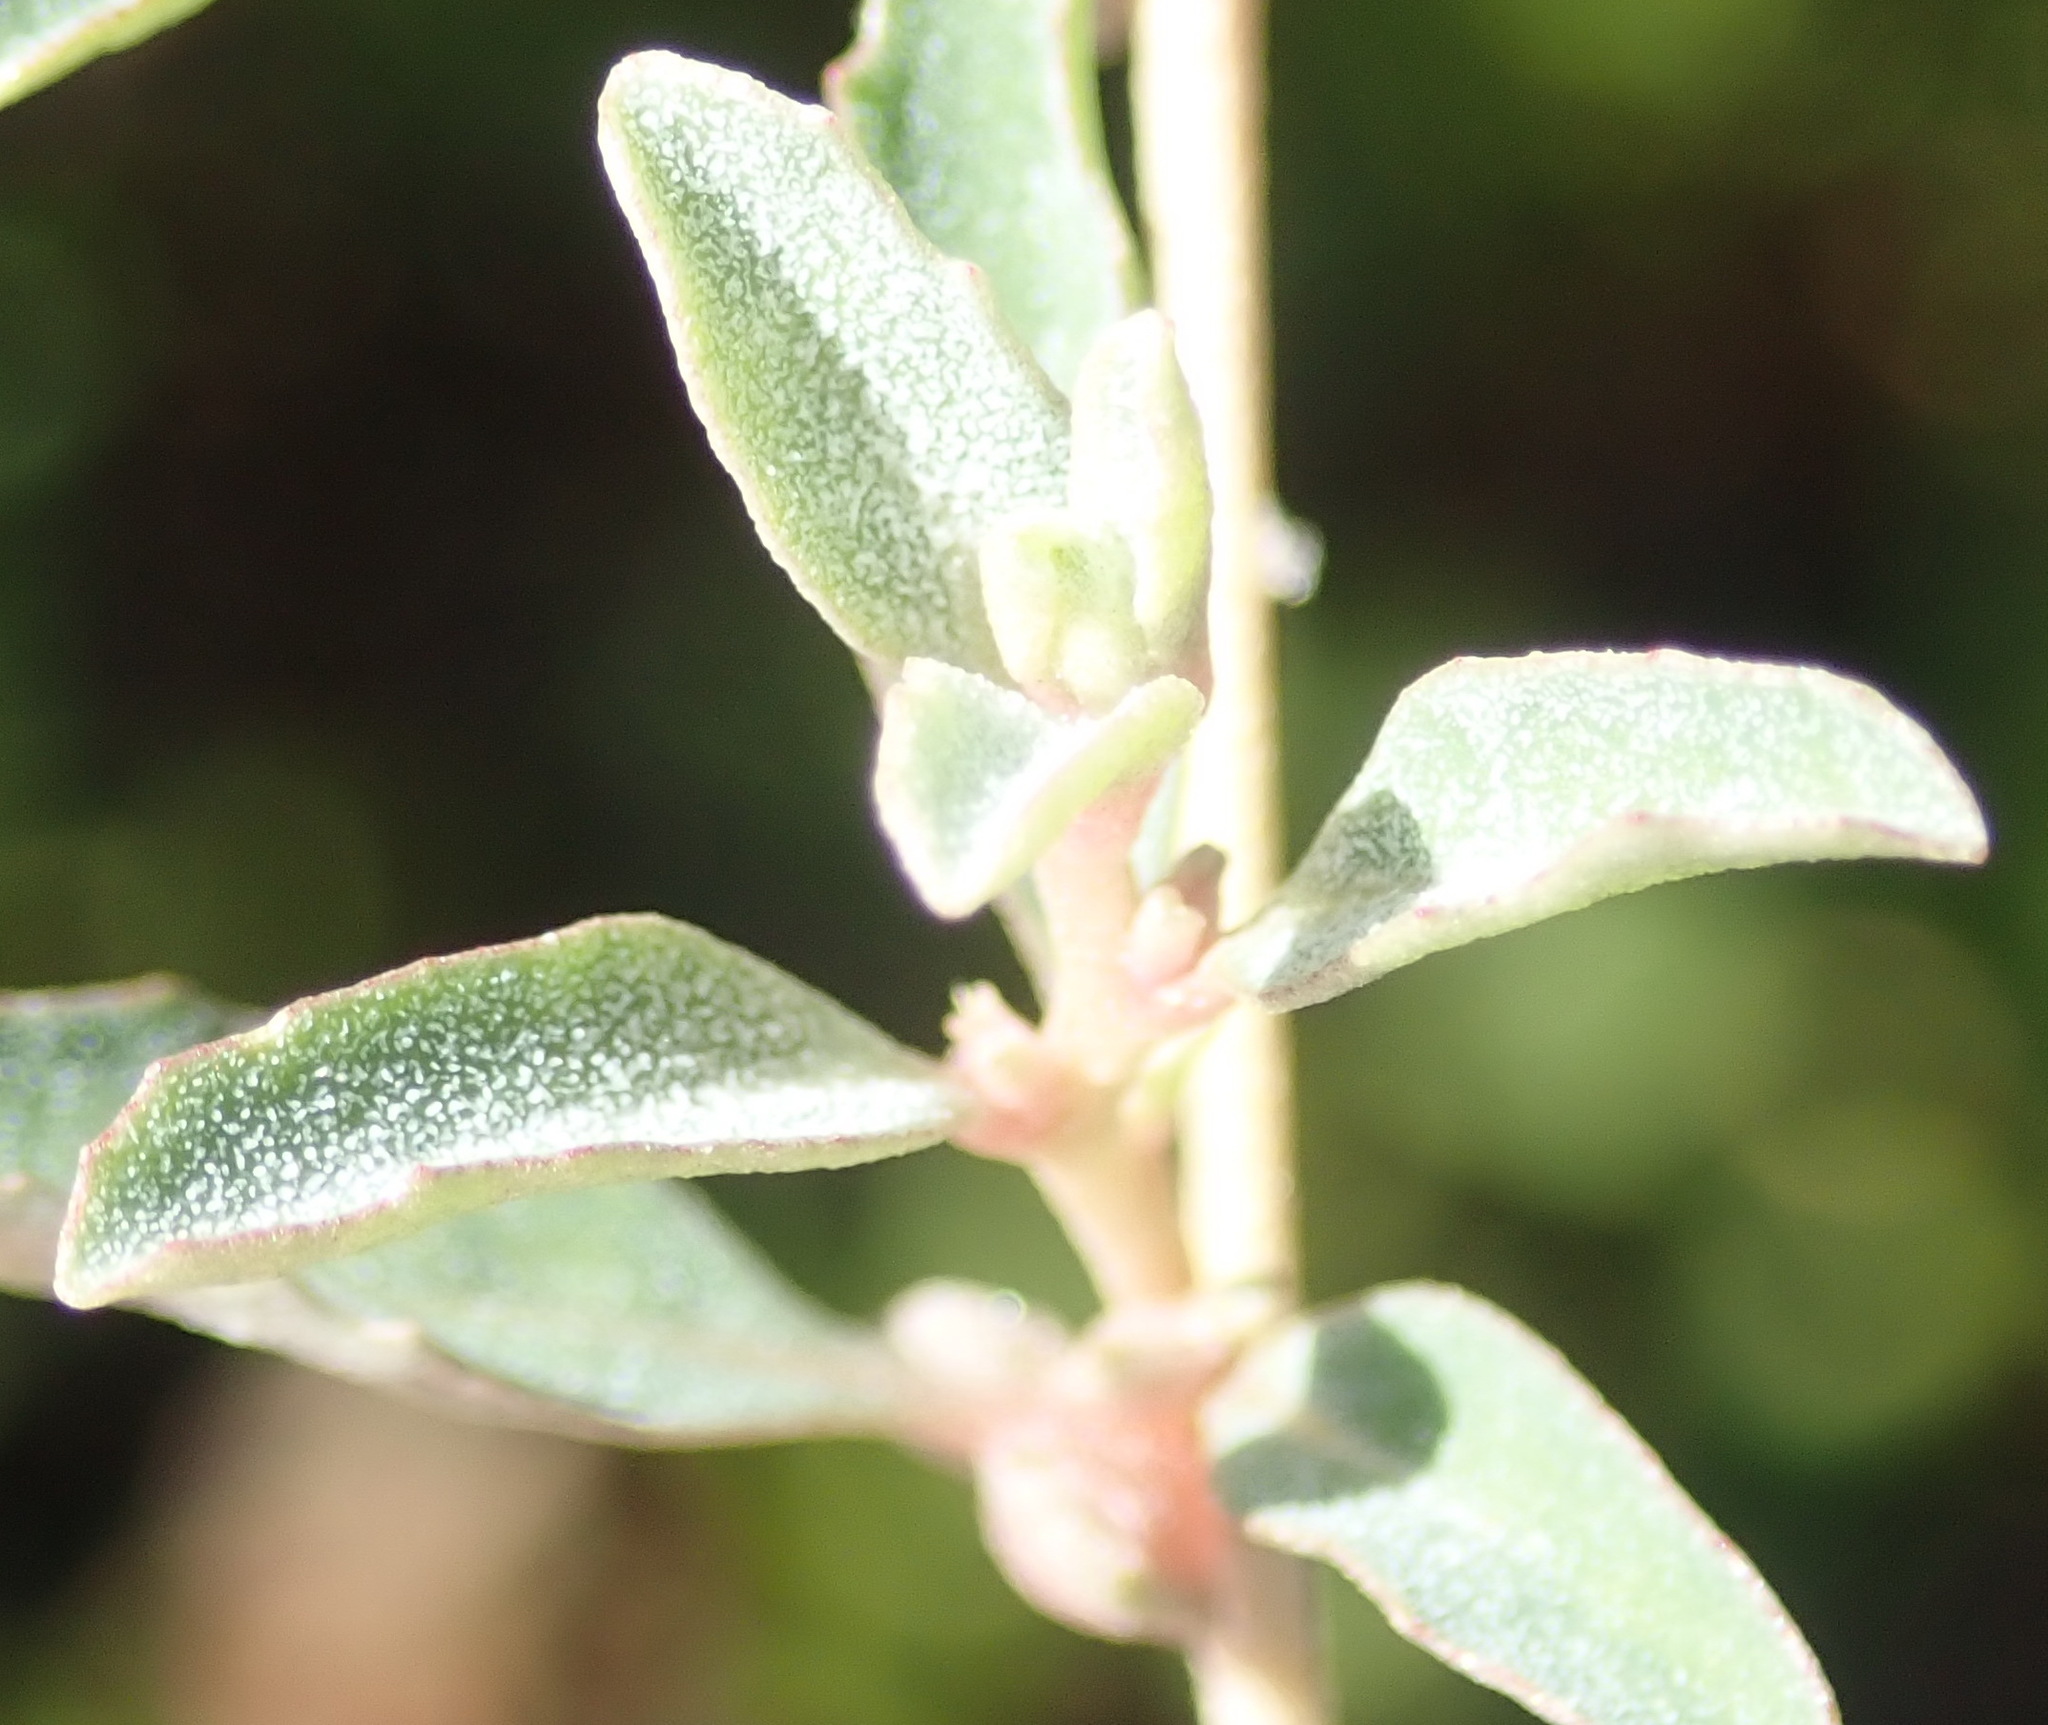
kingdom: Plantae
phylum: Tracheophyta
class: Magnoliopsida
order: Caryophyllales
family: Amaranthaceae
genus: Atriplex
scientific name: Atriplex semibaccata
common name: Australian saltbush
